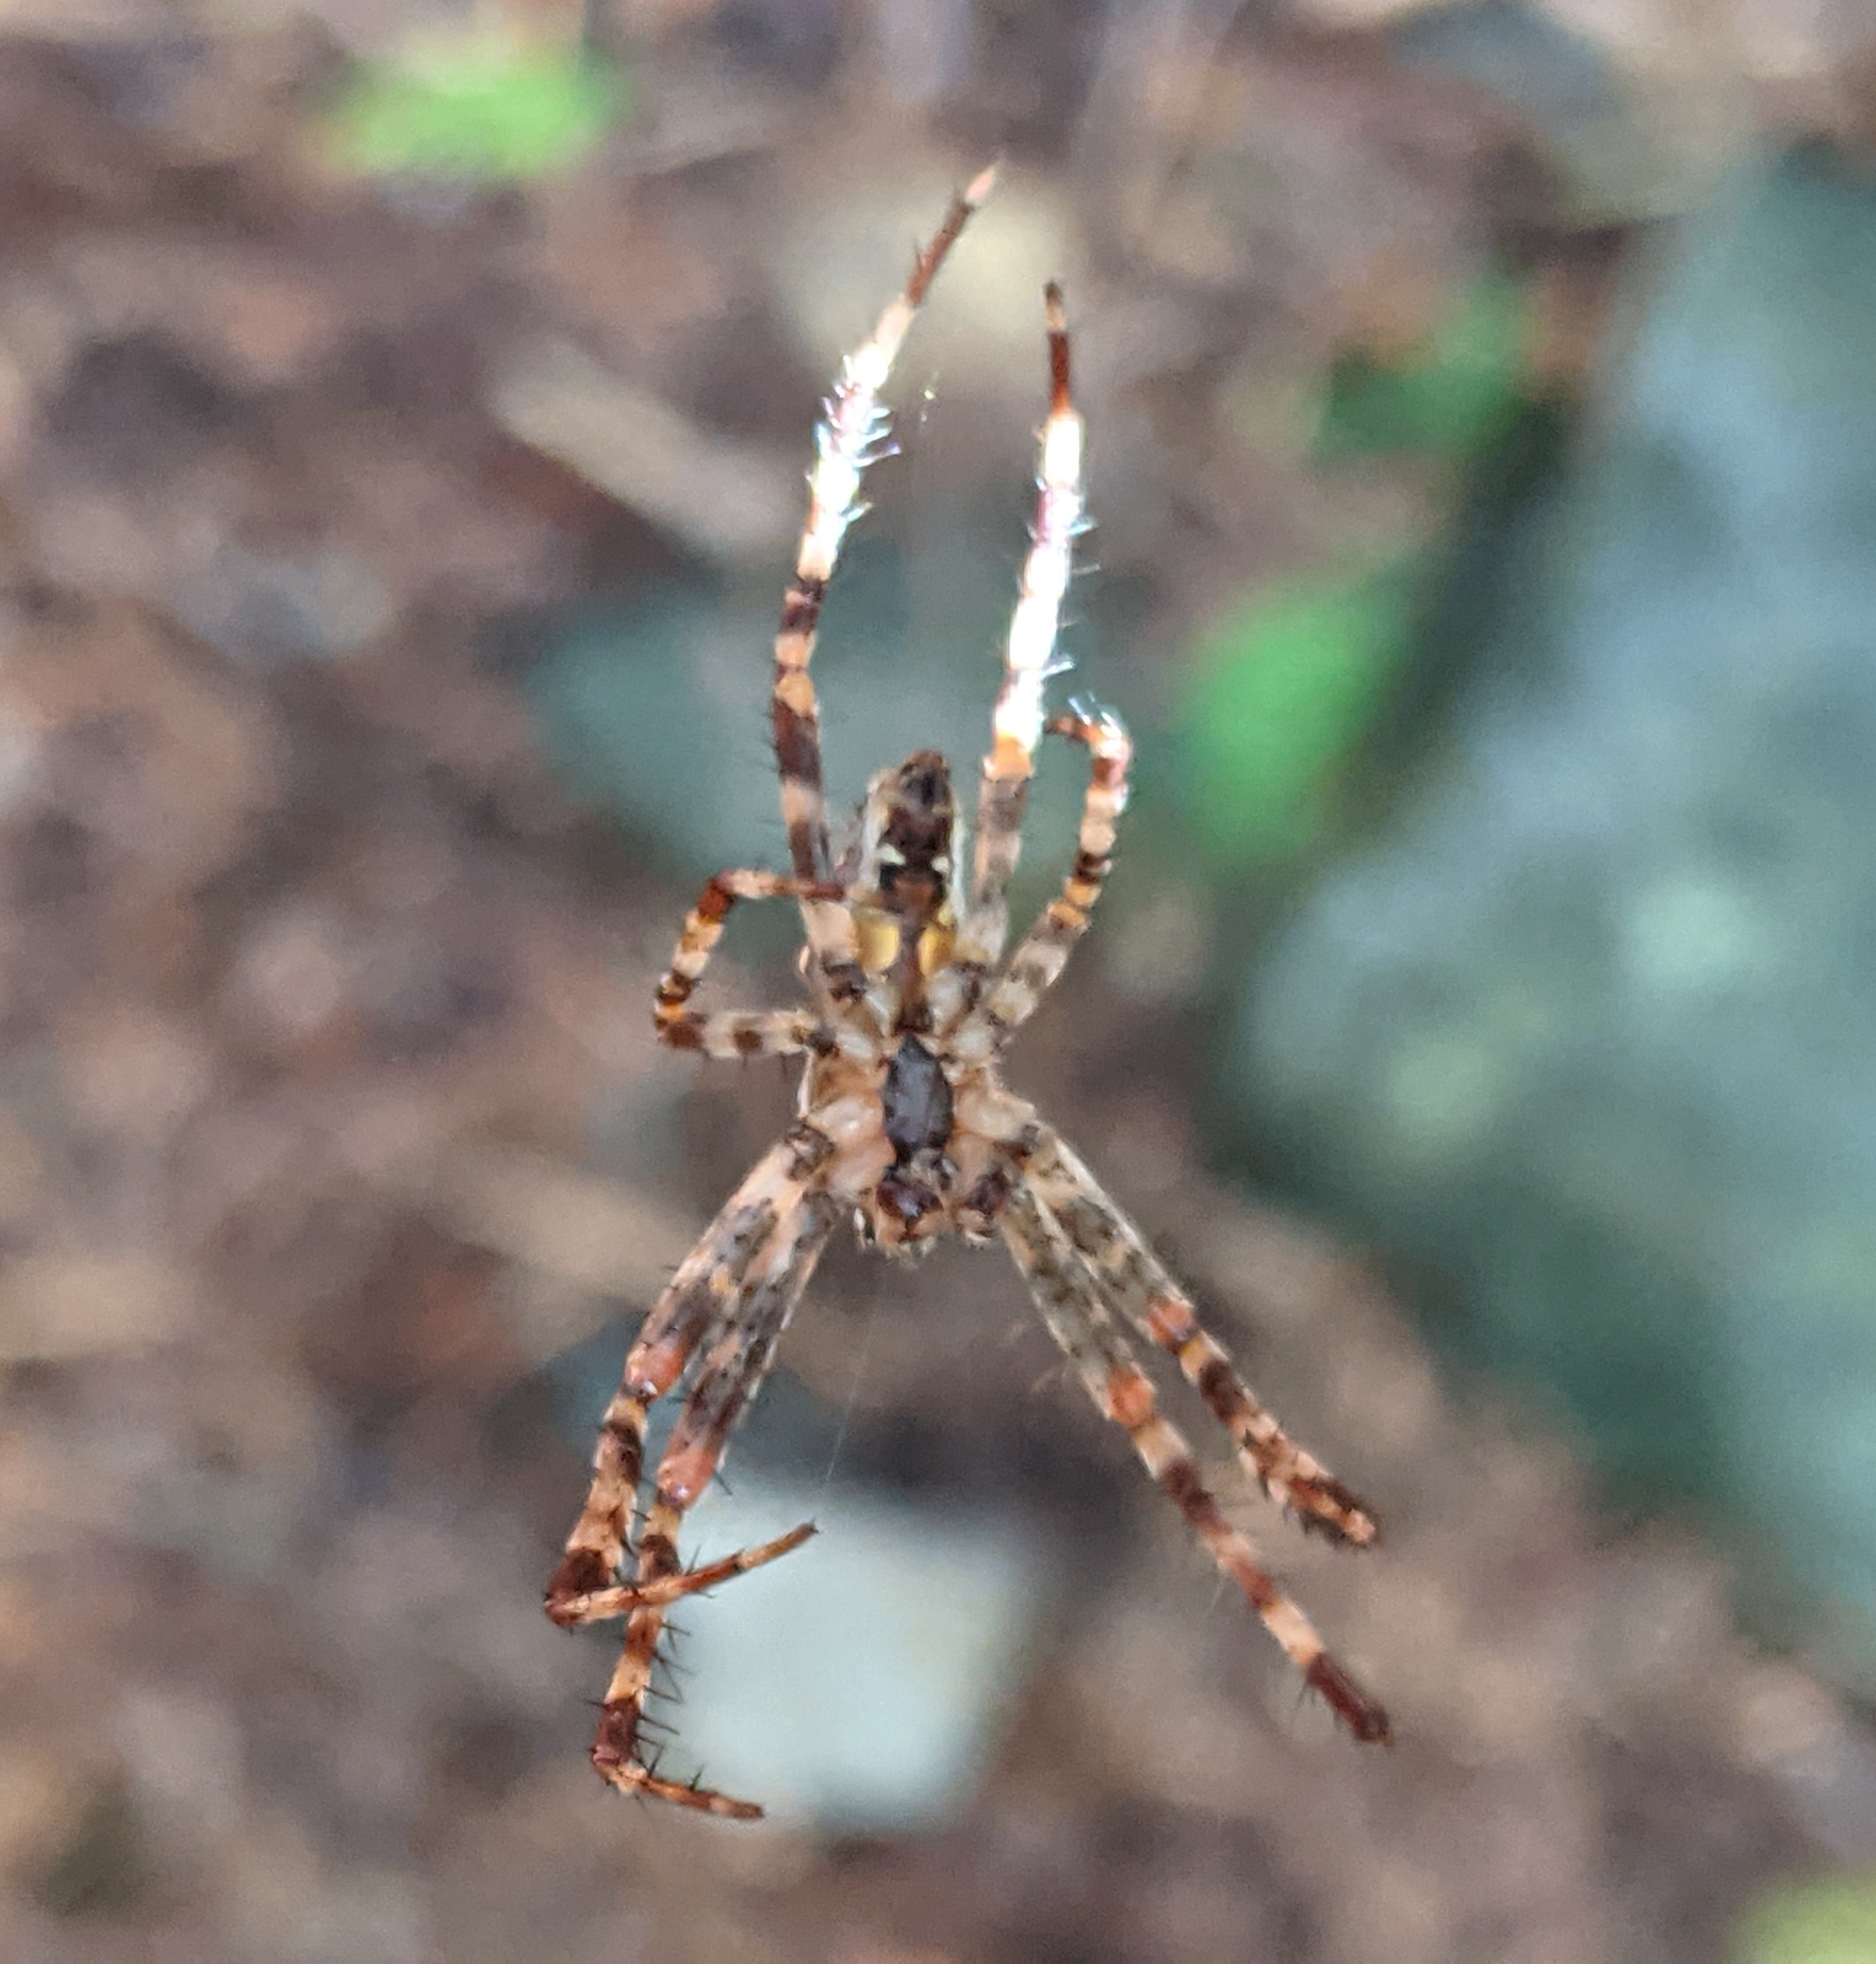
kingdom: Animalia
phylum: Arthropoda
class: Arachnida
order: Araneae
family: Araneidae
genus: Araneus
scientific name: Araneus diadematus
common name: Cross orbweaver
